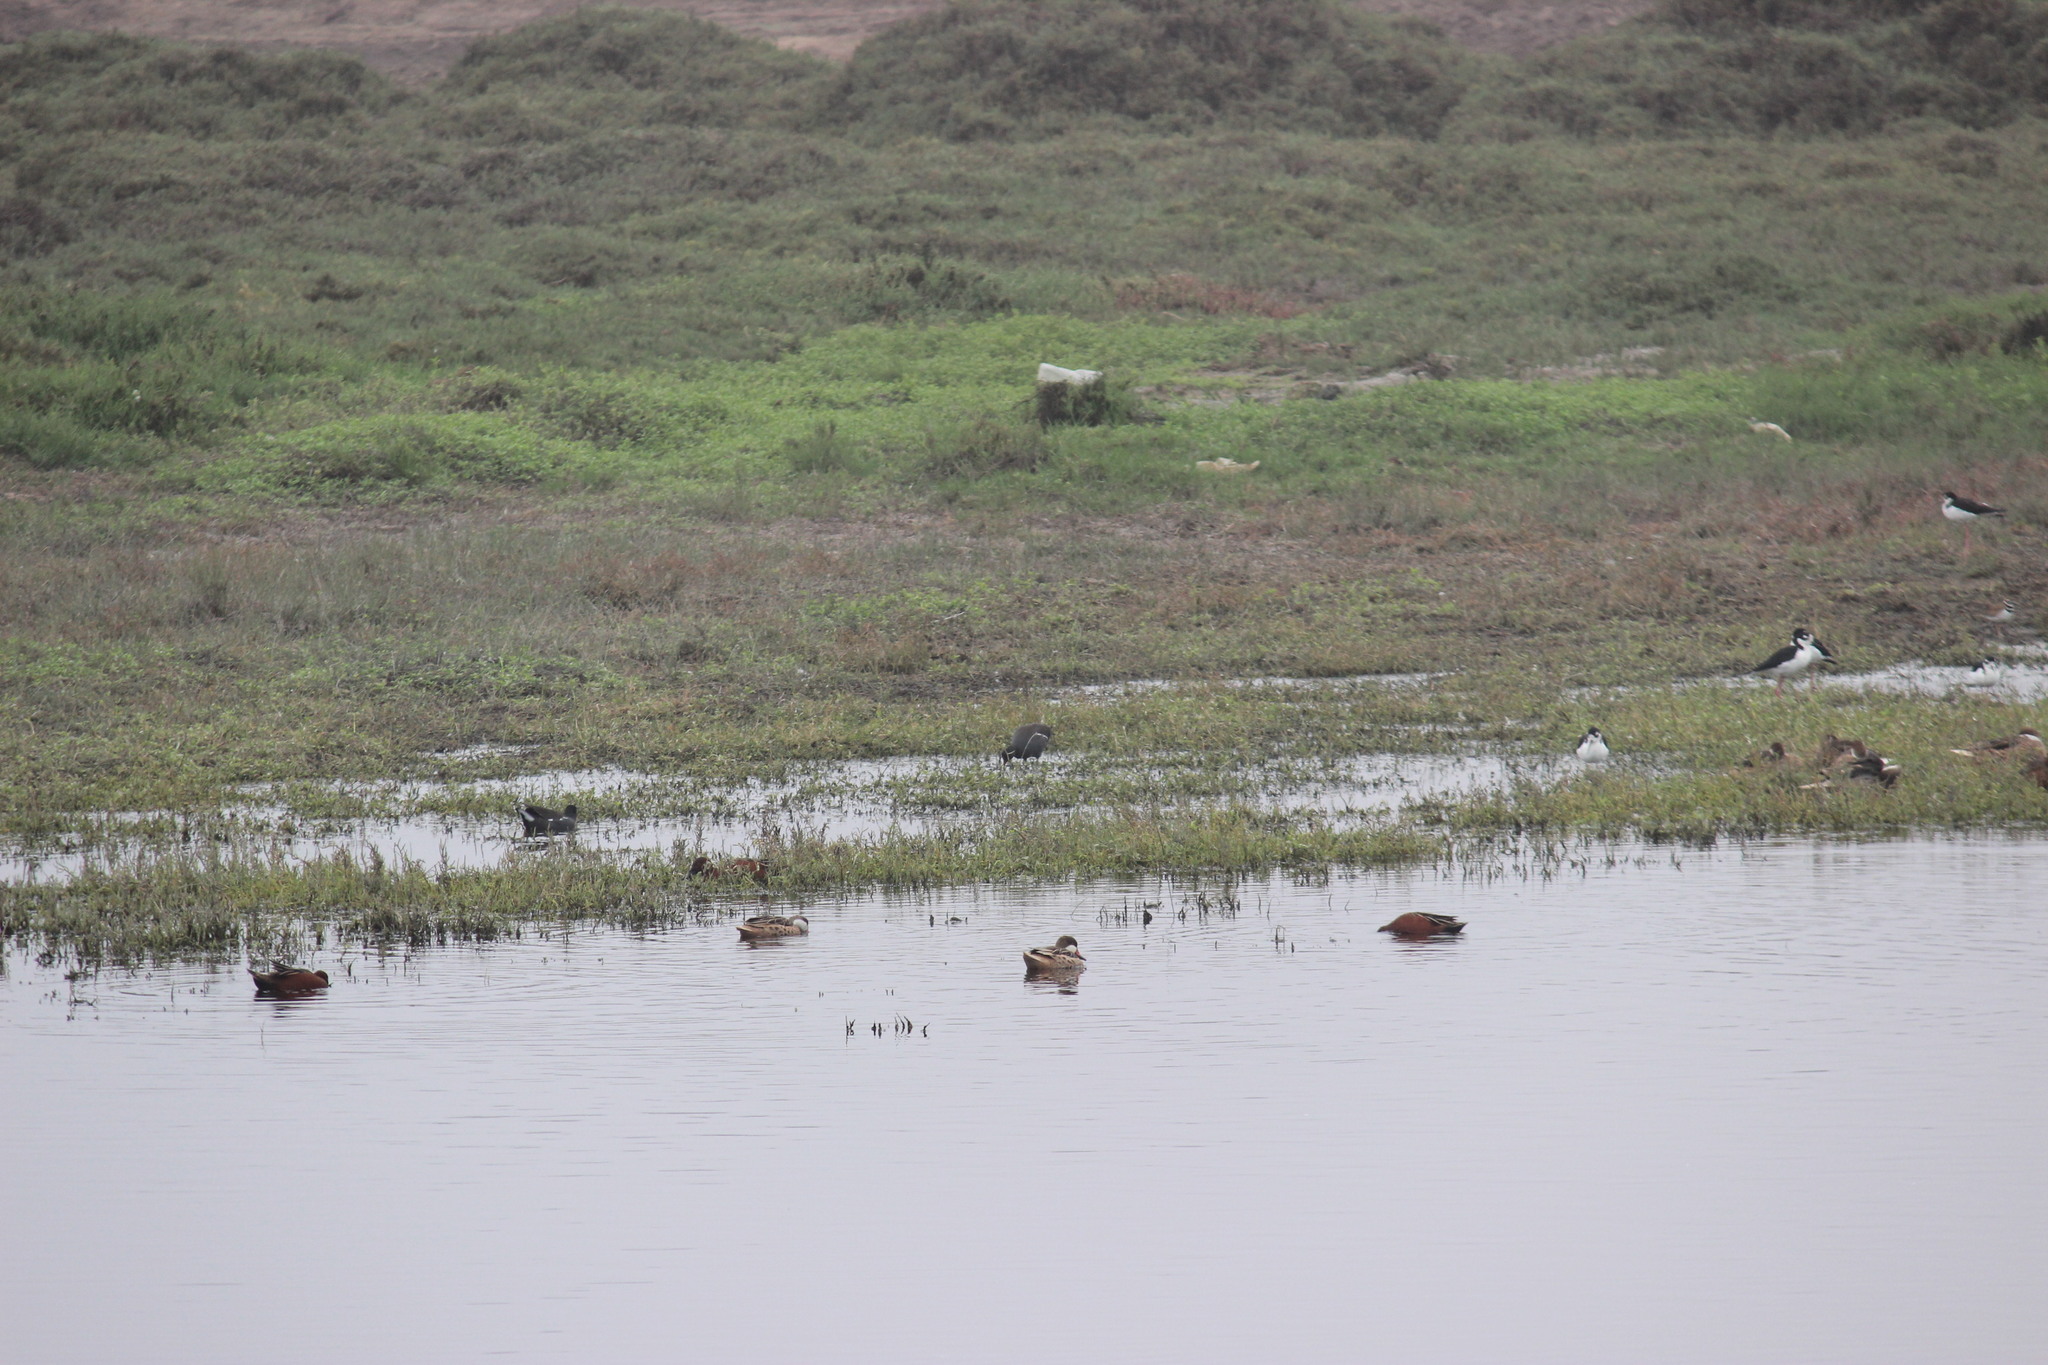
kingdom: Animalia
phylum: Chordata
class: Aves
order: Gruiformes
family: Rallidae
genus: Gallinula
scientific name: Gallinula chloropus
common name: Common moorhen
